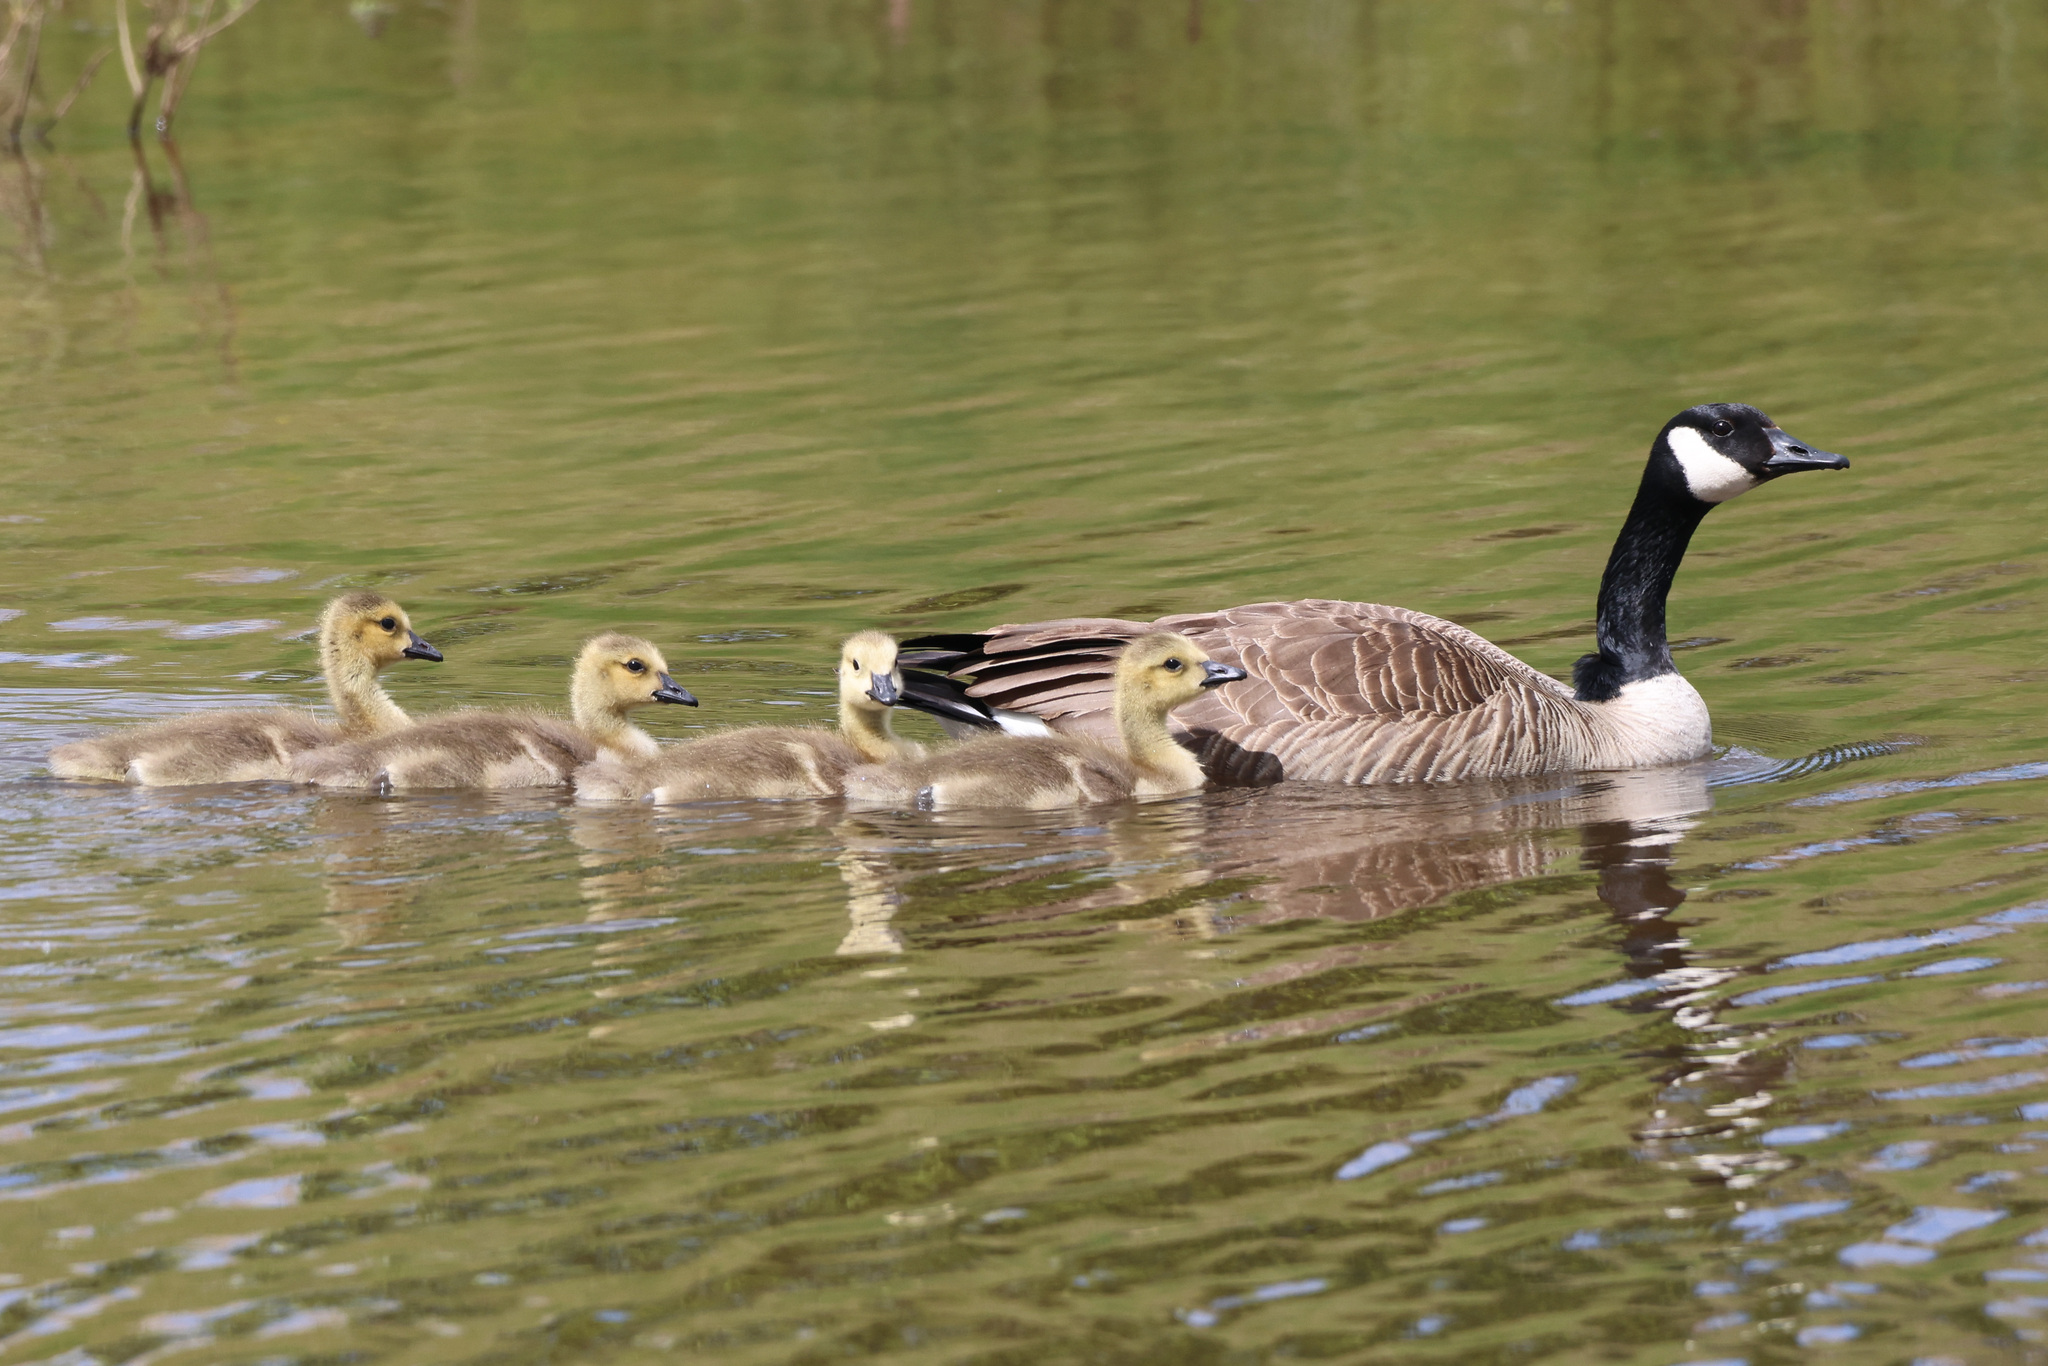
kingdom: Animalia
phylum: Chordata
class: Aves
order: Anseriformes
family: Anatidae
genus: Branta
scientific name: Branta canadensis
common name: Canada goose
